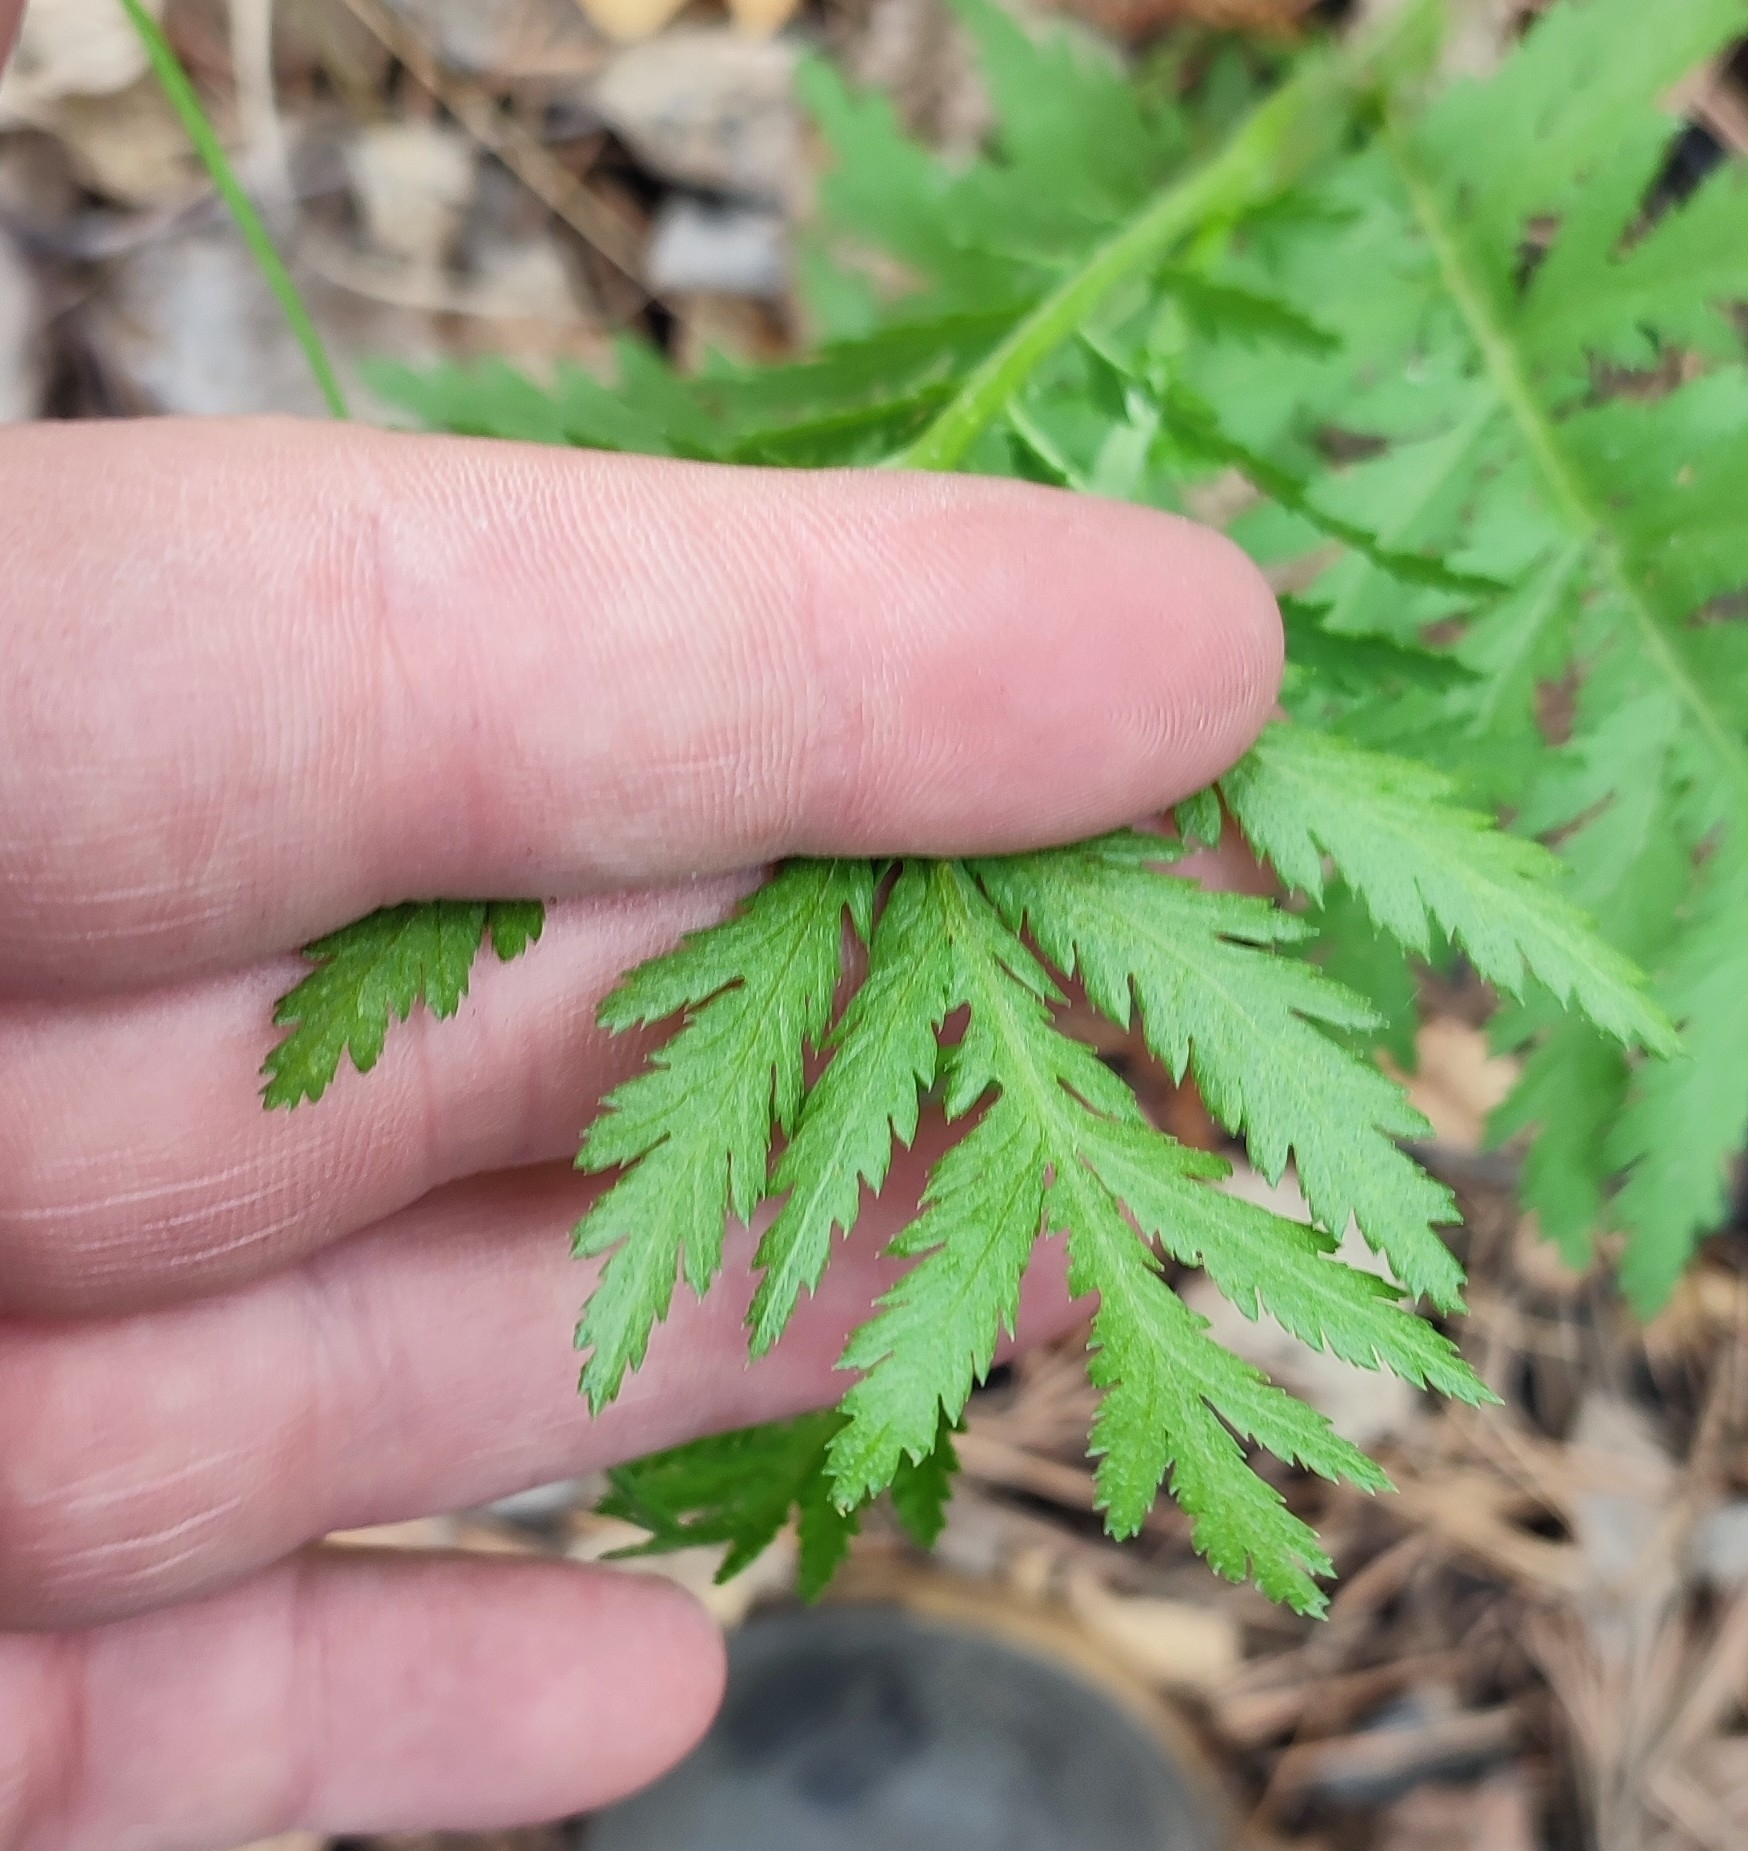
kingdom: Plantae
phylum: Tracheophyta
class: Magnoliopsida
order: Asterales
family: Asteraceae
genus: Tanacetum
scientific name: Tanacetum vulgare
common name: Common tansy
